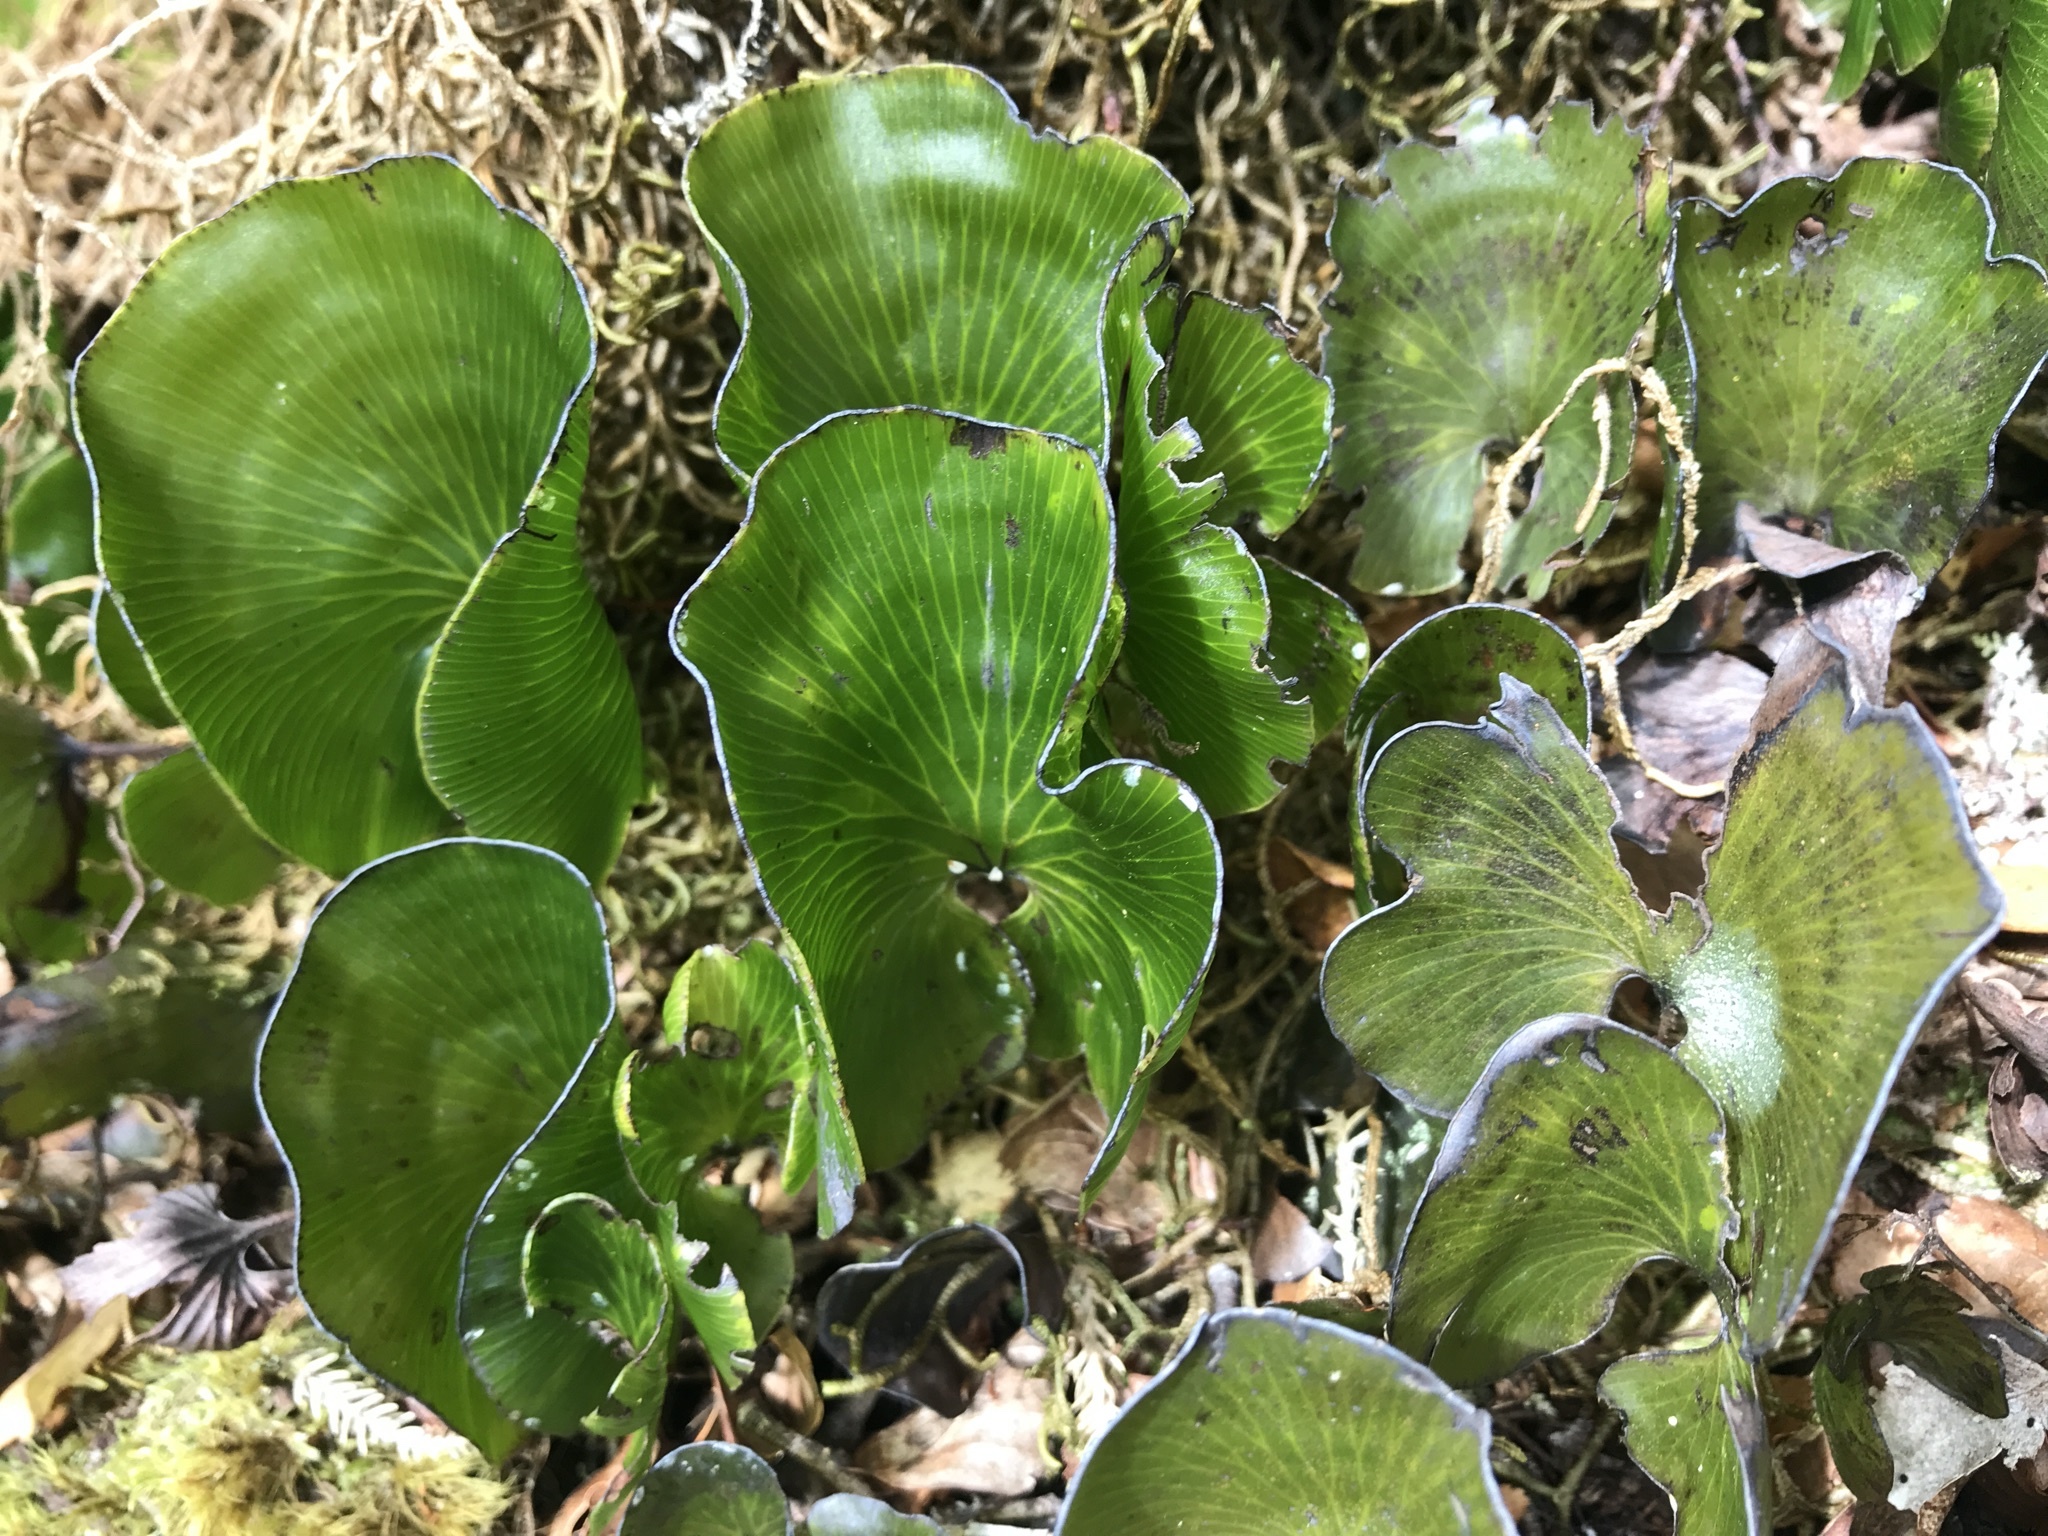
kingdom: Plantae
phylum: Tracheophyta
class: Polypodiopsida
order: Hymenophyllales
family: Hymenophyllaceae
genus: Hymenophyllum
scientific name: Hymenophyllum nephrophyllum
